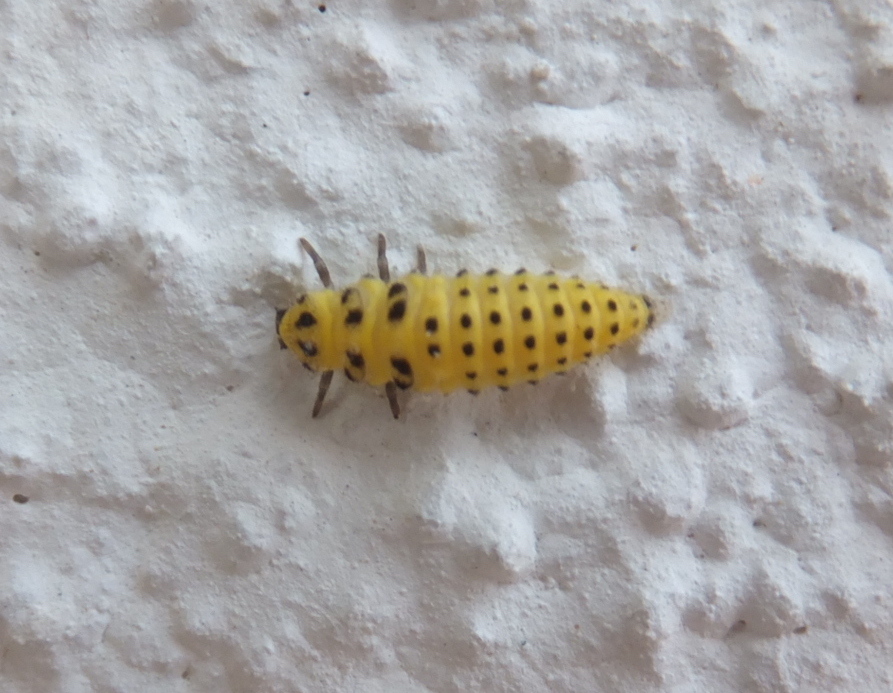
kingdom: Animalia
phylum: Arthropoda
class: Insecta
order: Coleoptera
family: Coccinellidae
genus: Psyllobora
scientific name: Psyllobora vigintiduopunctata
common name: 22-spot ladybird
